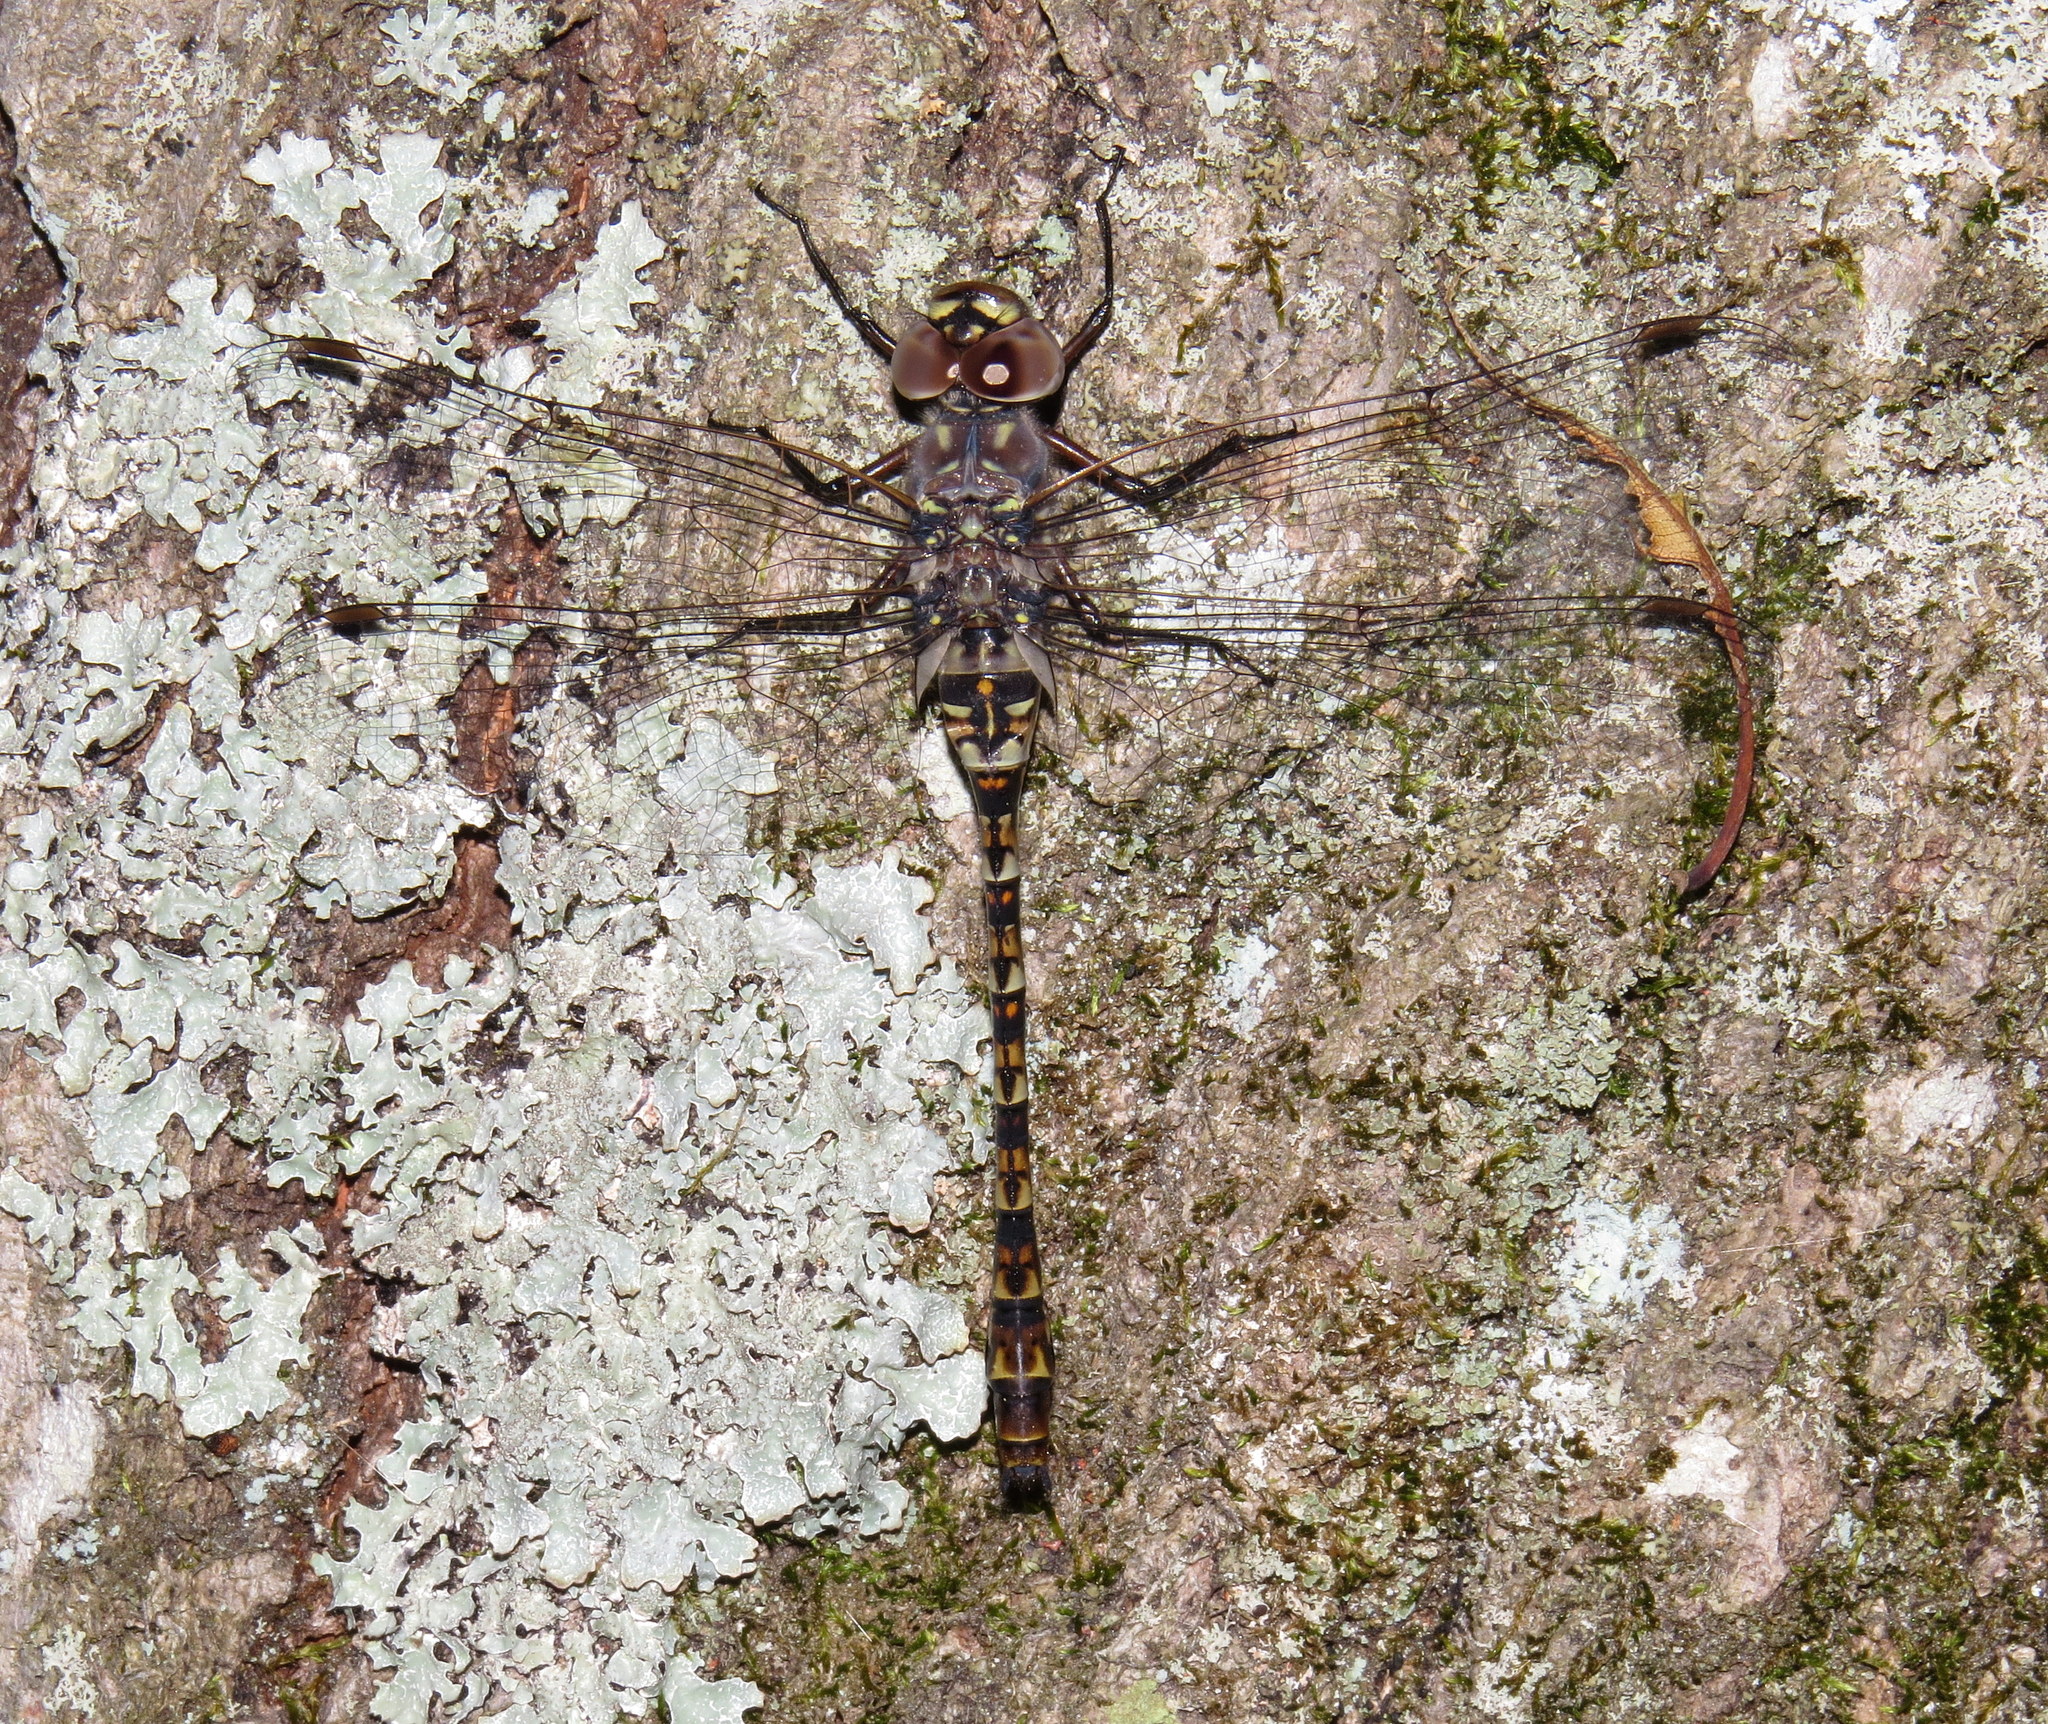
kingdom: Animalia
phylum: Arthropoda
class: Insecta
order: Odonata
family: Aeshnidae
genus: Gomphaeschna
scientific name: Gomphaeschna antilope
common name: Taper-tailed darner
